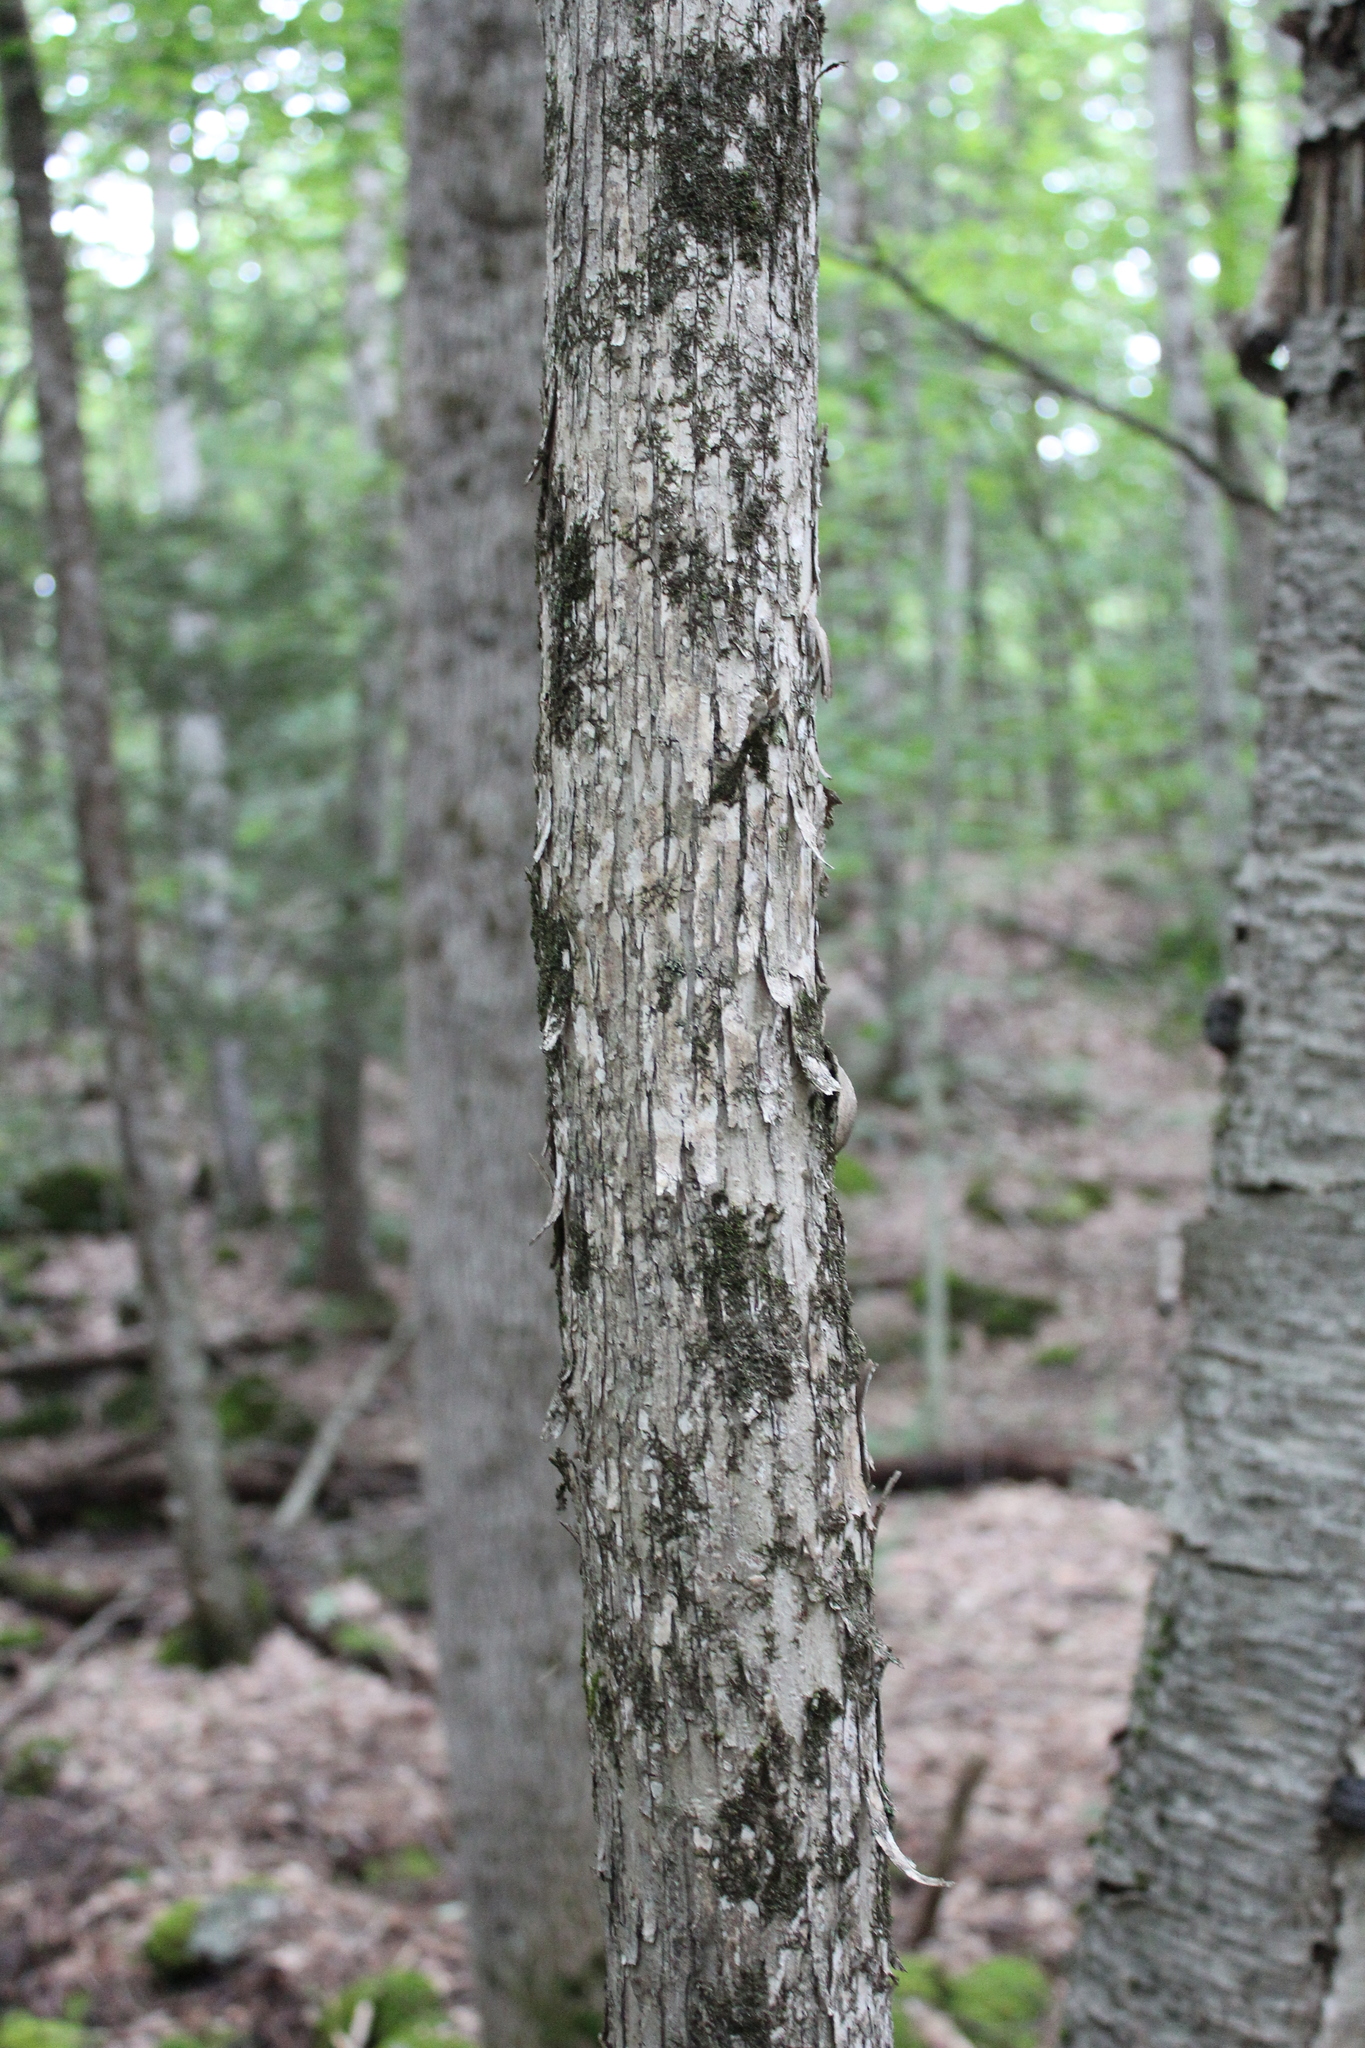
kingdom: Plantae
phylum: Tracheophyta
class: Magnoliopsida
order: Fagales
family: Betulaceae
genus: Ostrya
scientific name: Ostrya virginiana
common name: Ironwood
